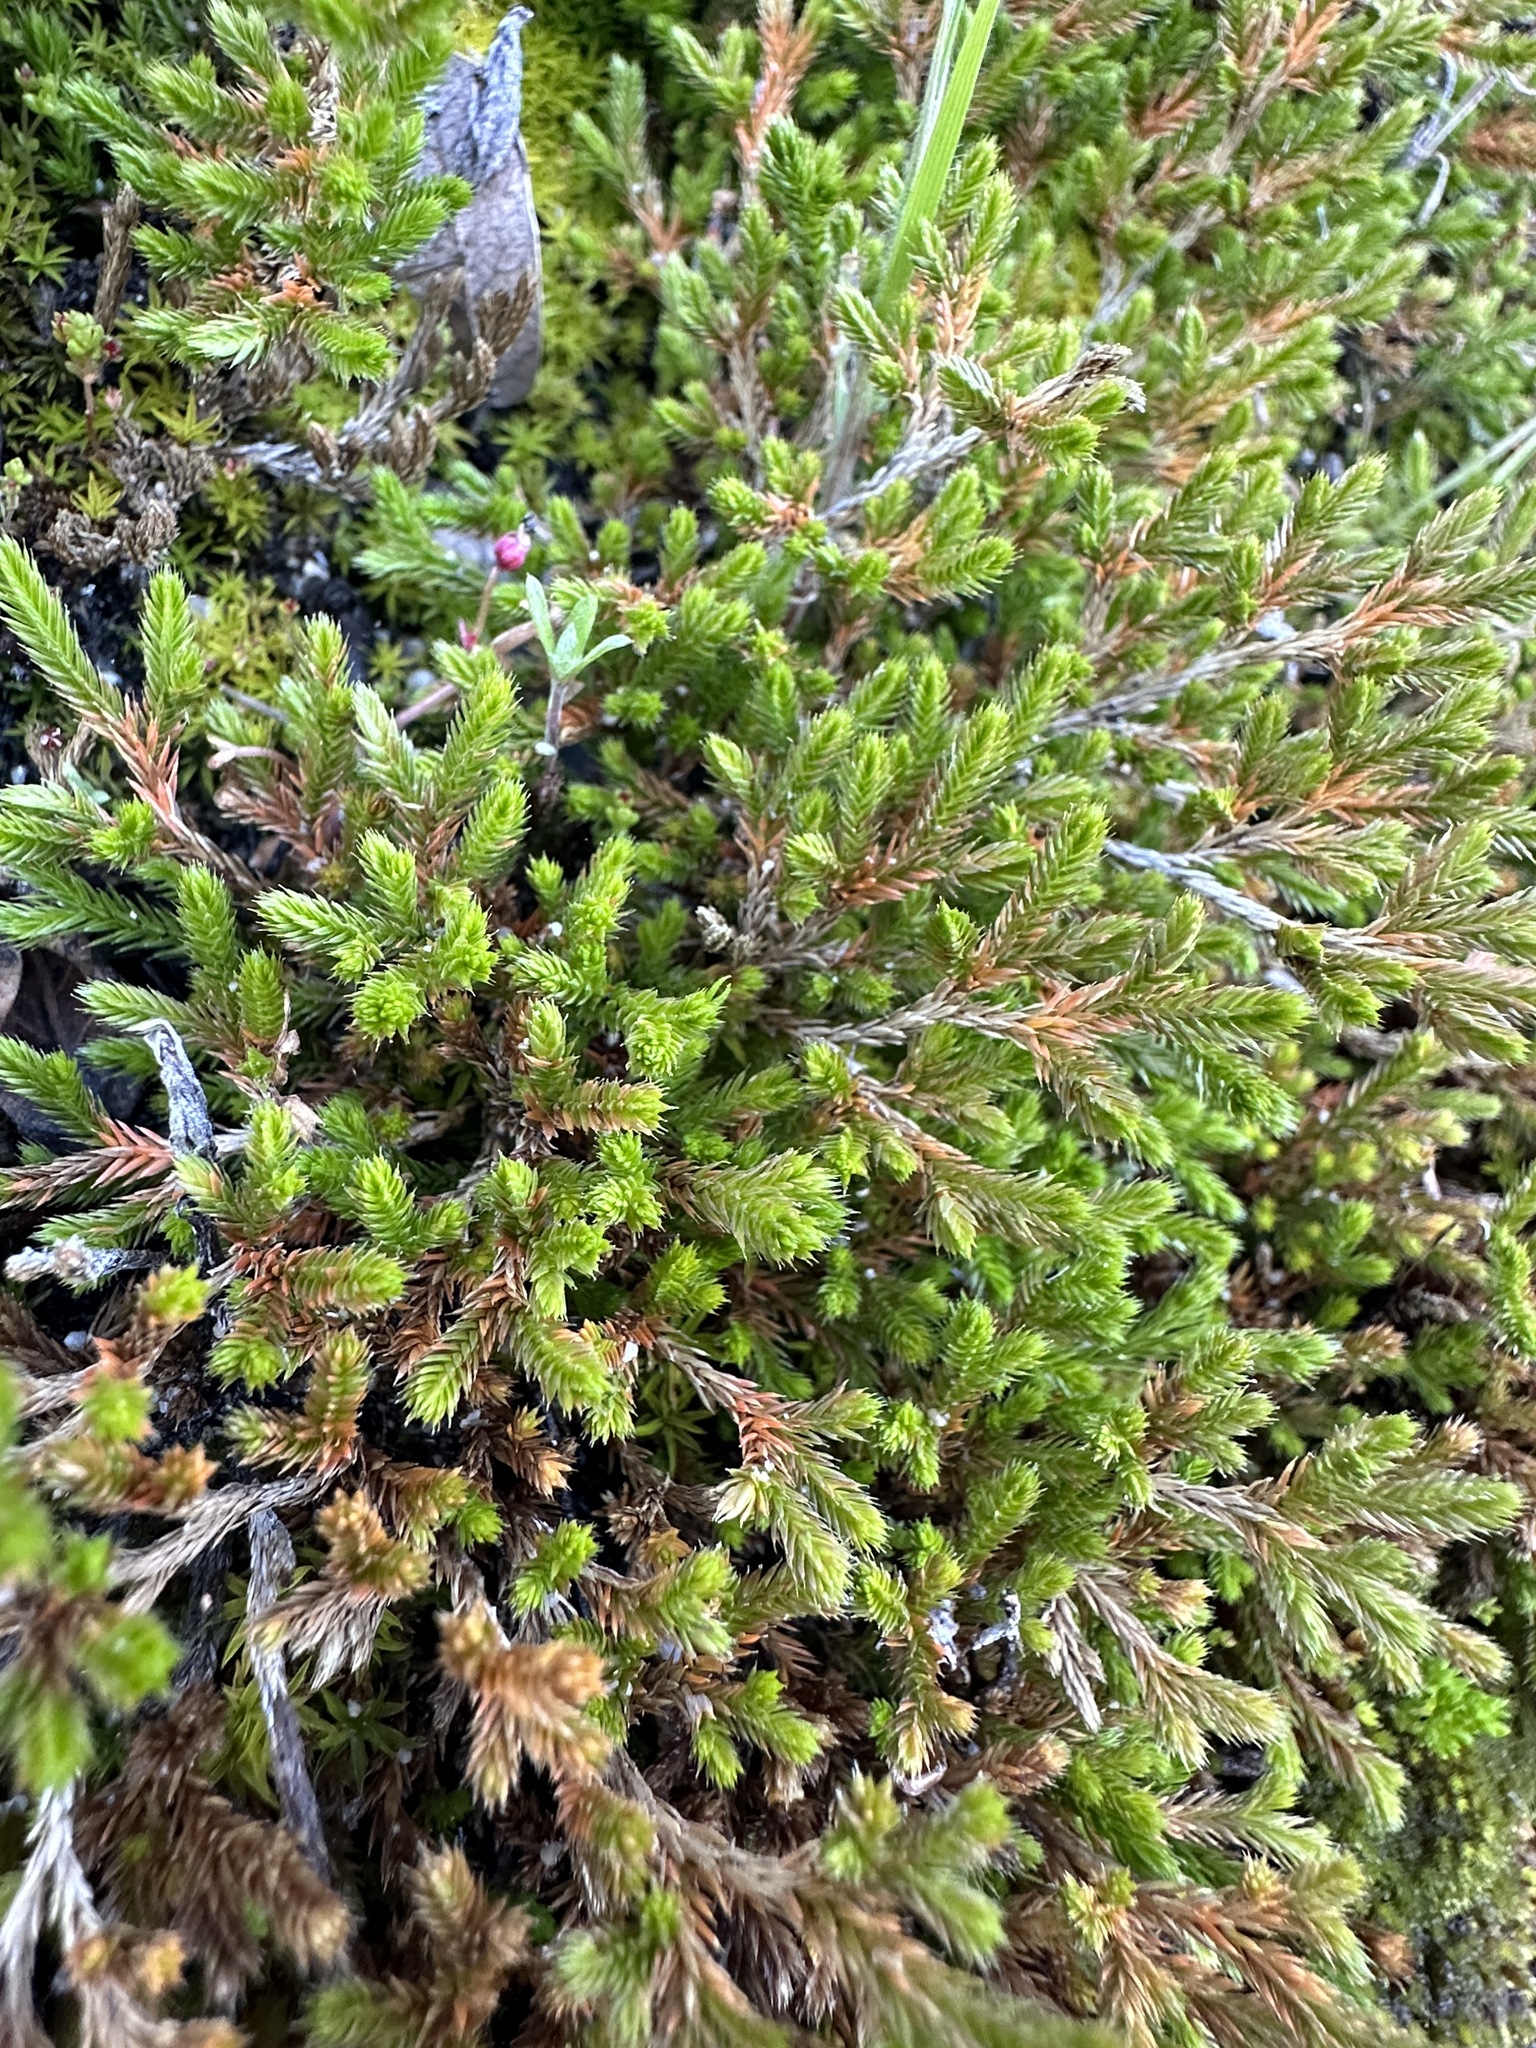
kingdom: Plantae
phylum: Tracheophyta
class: Lycopodiopsida
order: Selaginellales
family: Selaginellaceae
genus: Selaginella
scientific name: Selaginella bigelovii
